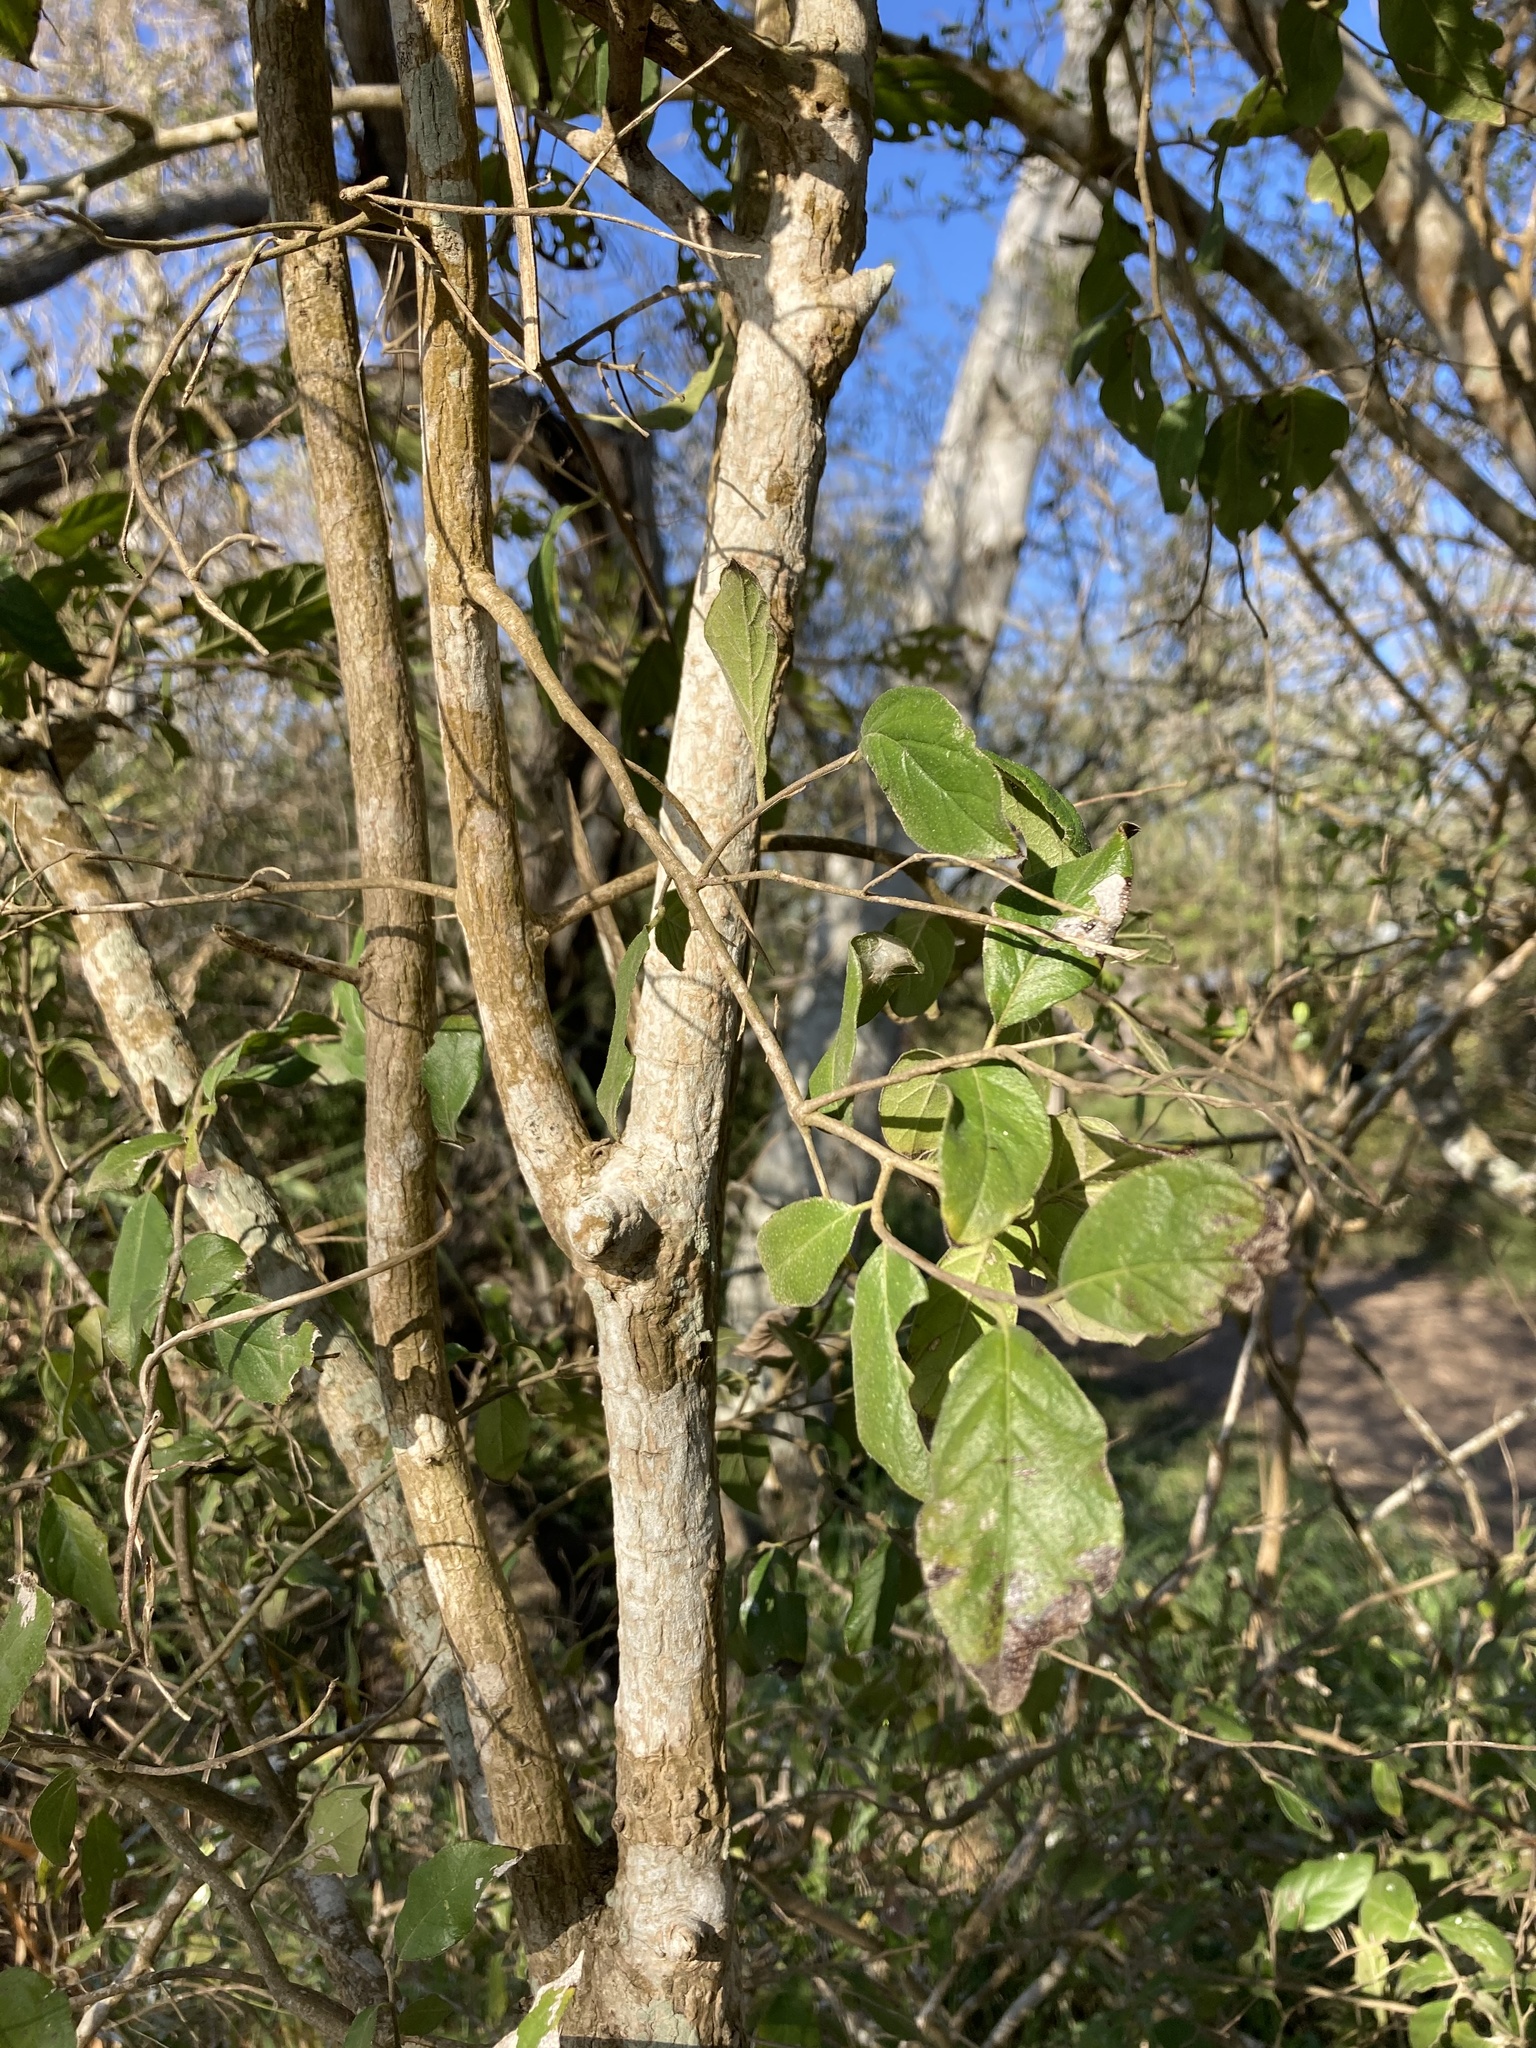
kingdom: Plantae
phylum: Tracheophyta
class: Magnoliopsida
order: Boraginales
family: Ehretiaceae
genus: Ehretia
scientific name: Ehretia anacua
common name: Sugarberry
